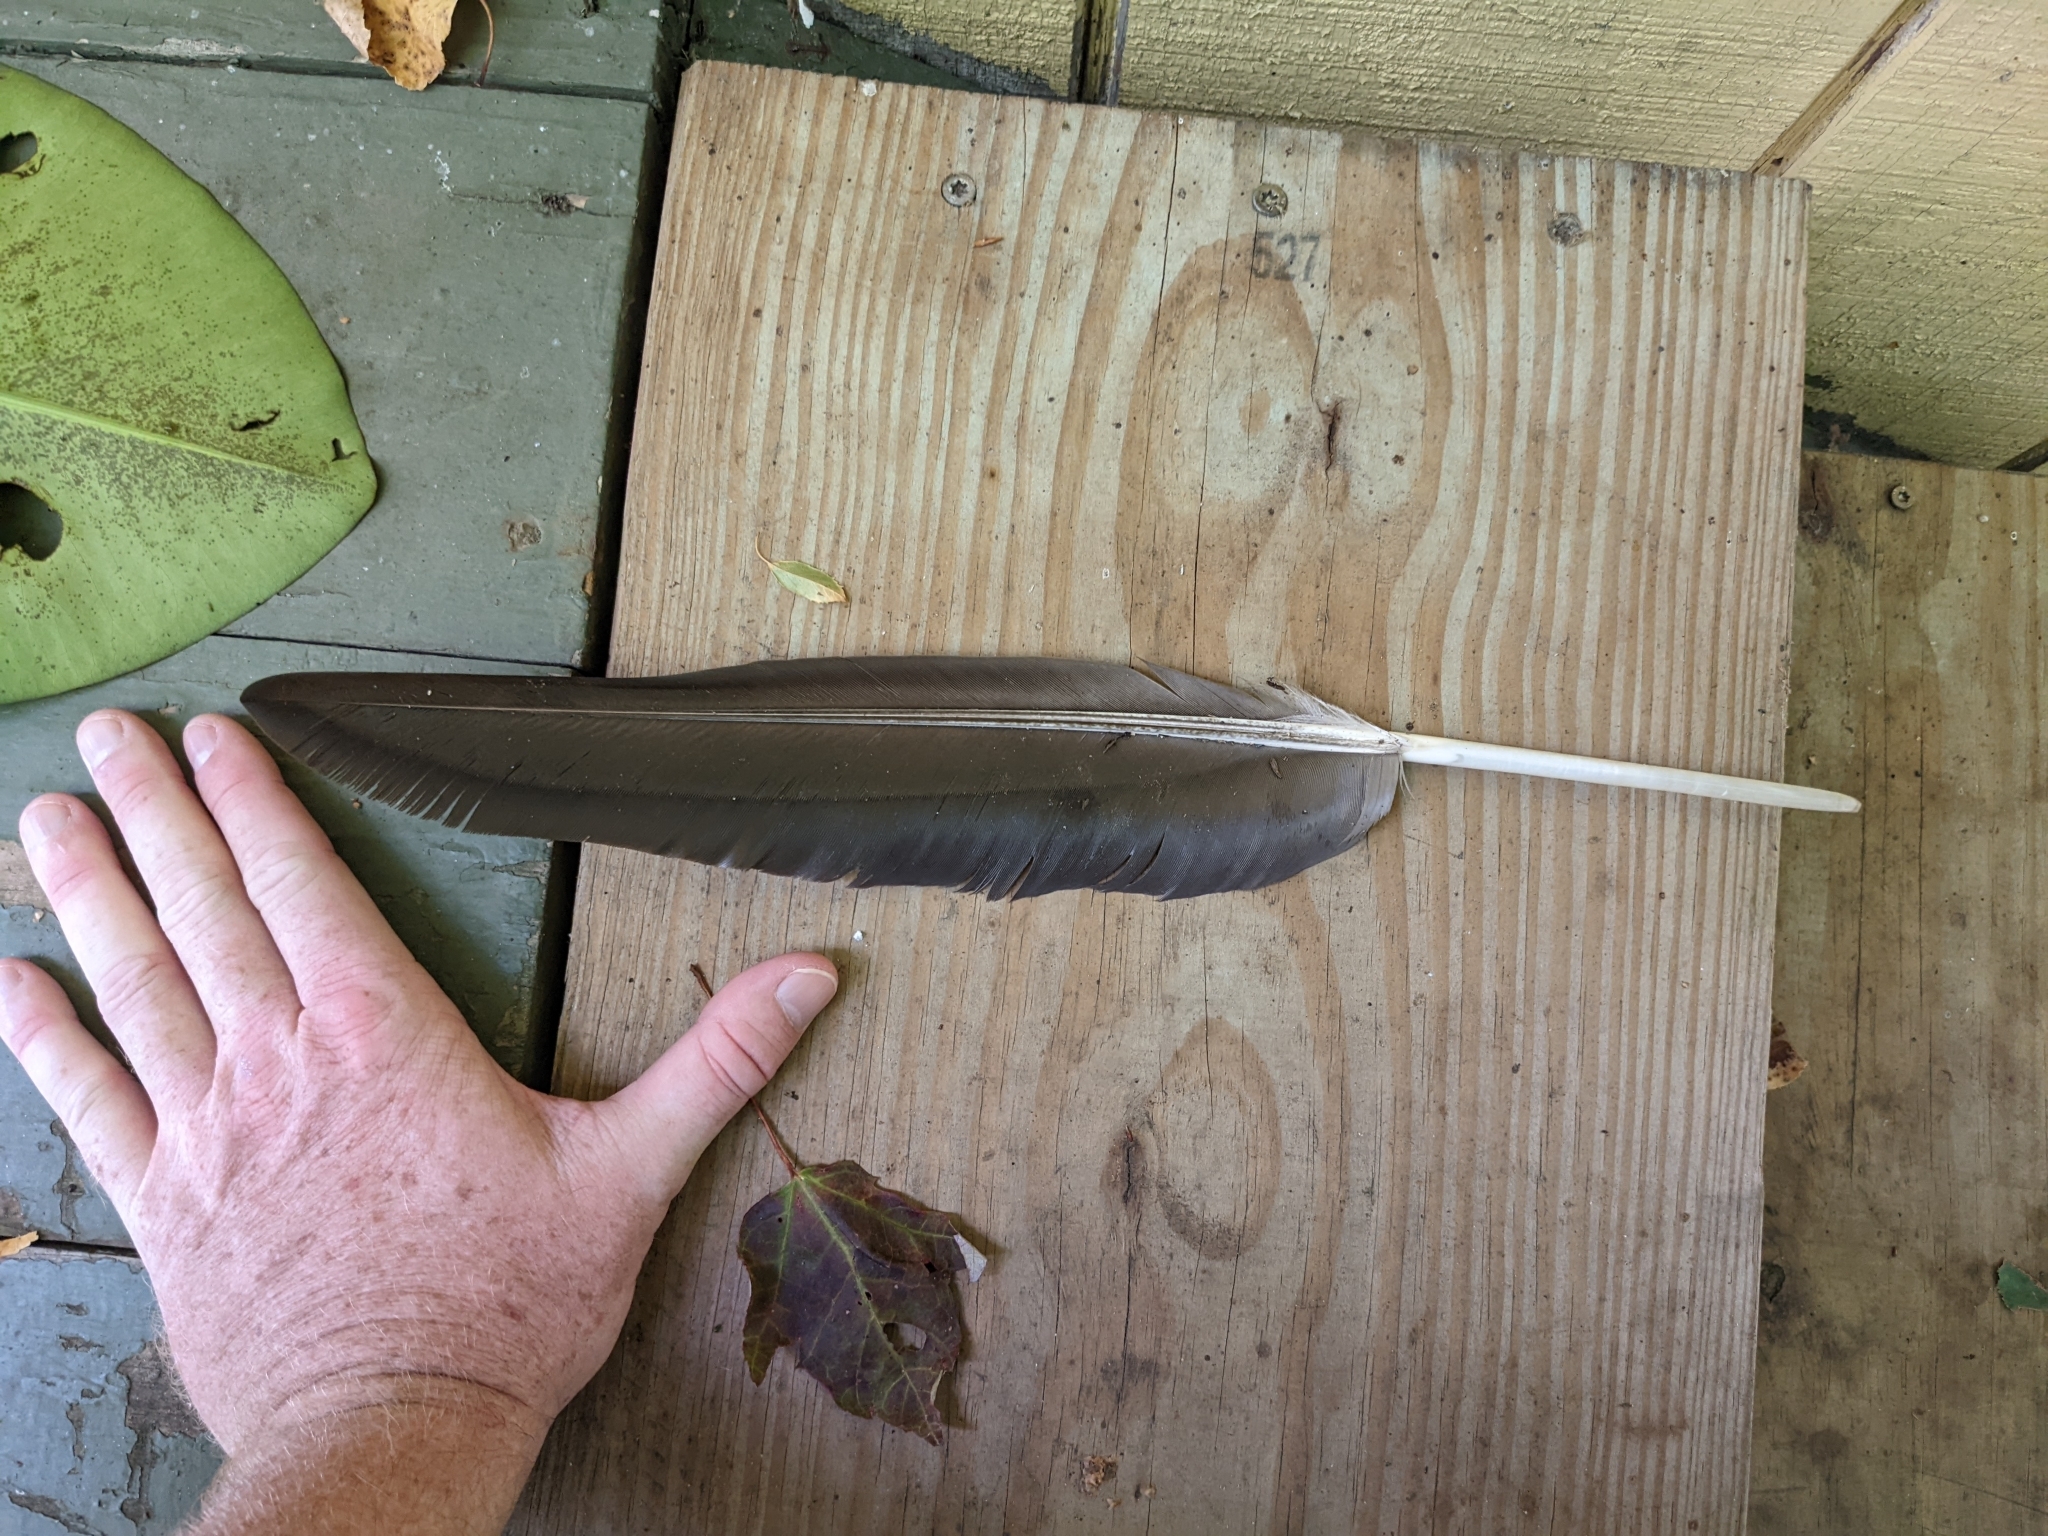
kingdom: Animalia
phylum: Chordata
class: Aves
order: Anseriformes
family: Anatidae
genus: Branta
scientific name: Branta canadensis
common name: Canada goose
